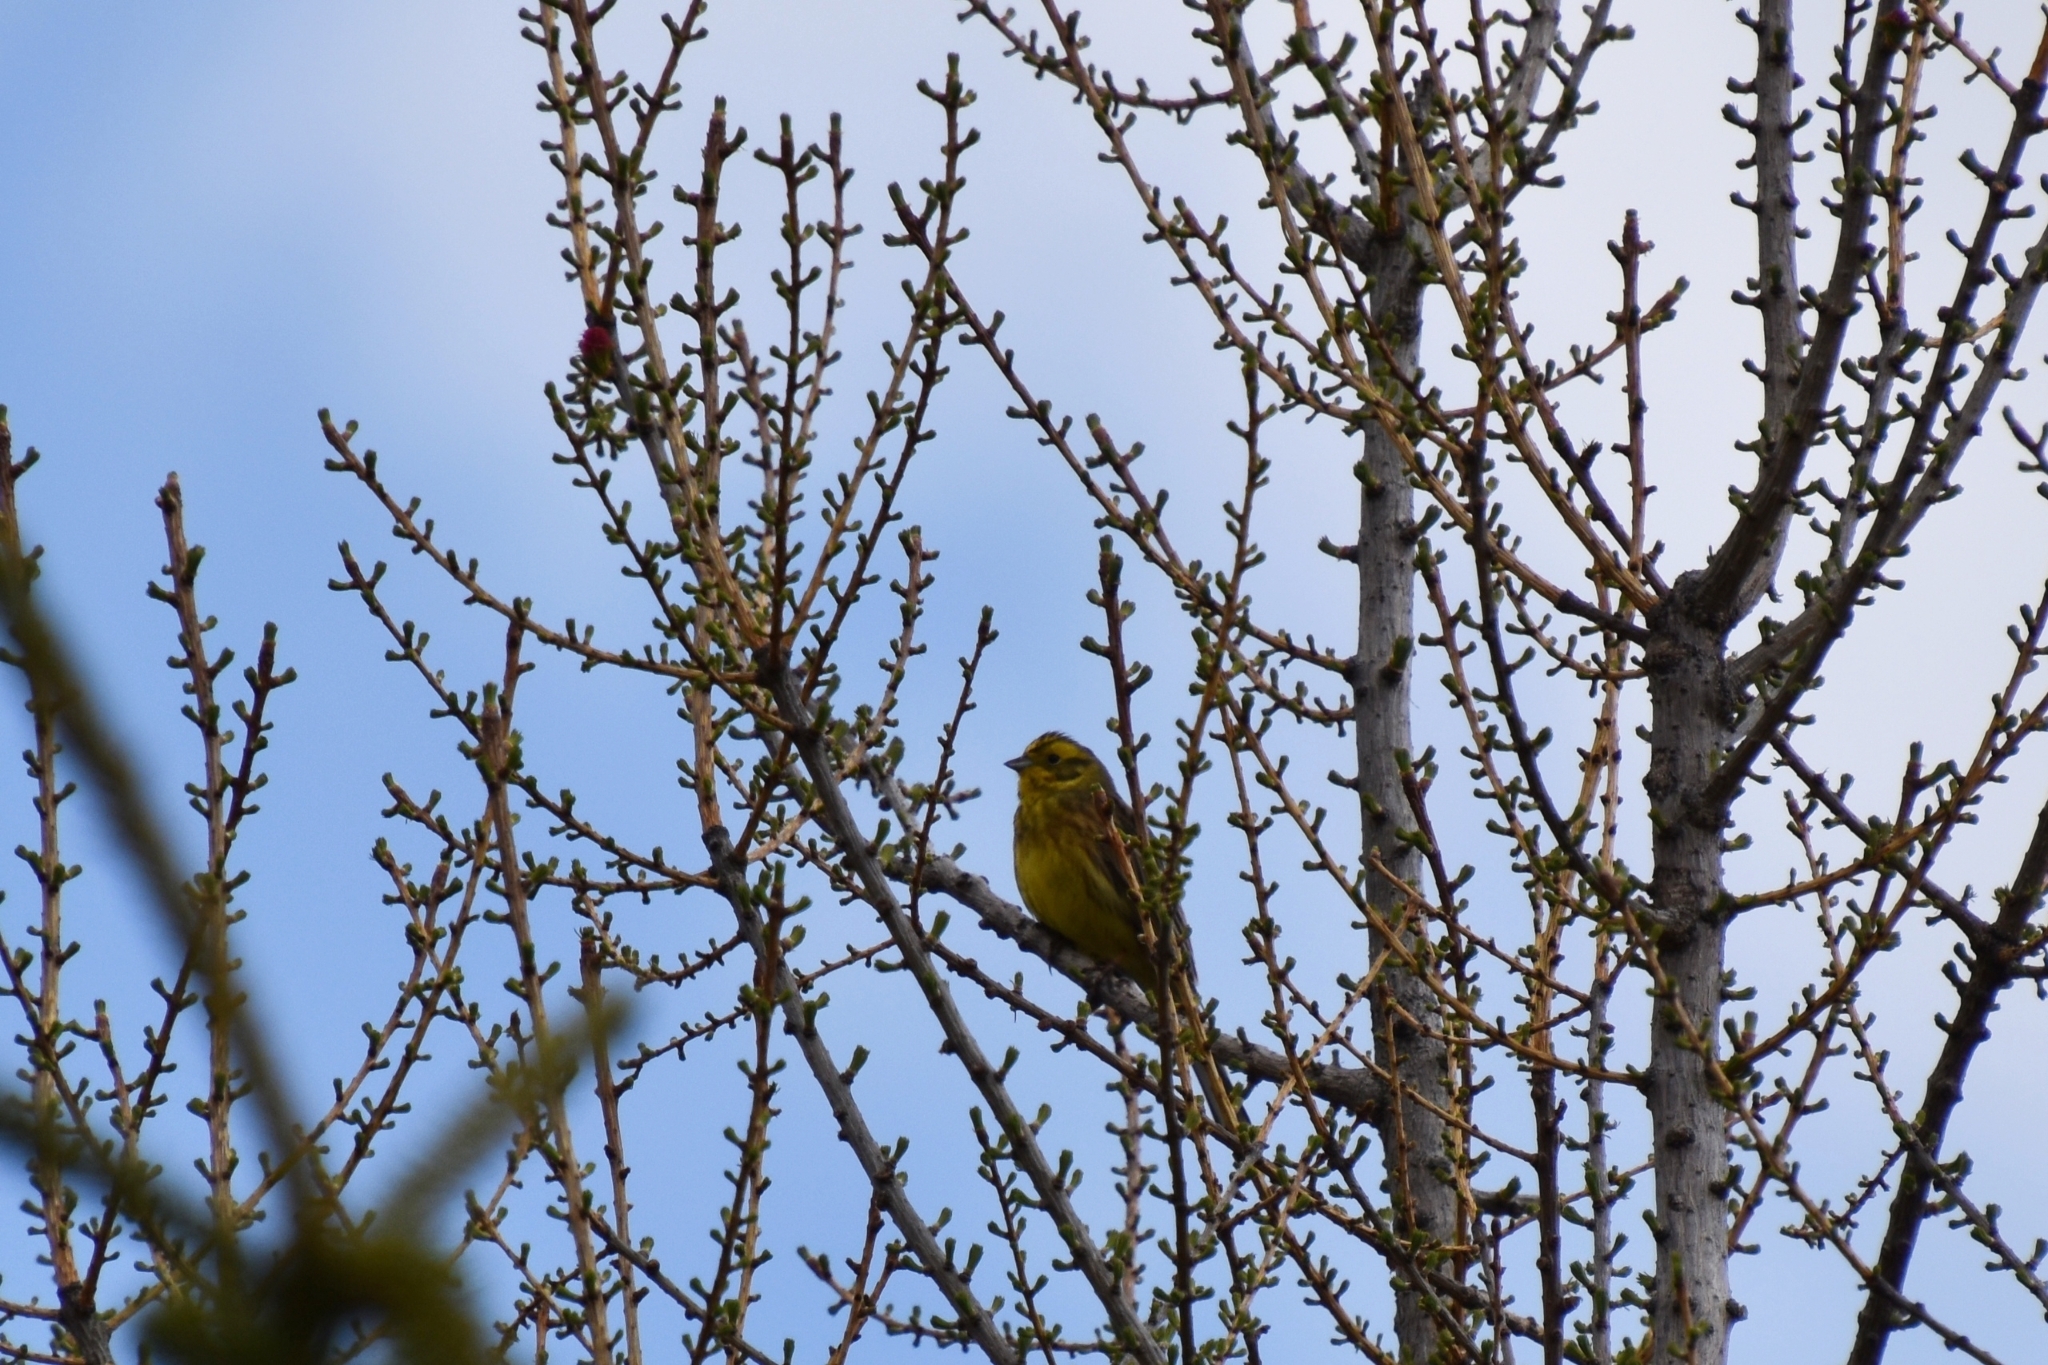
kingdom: Animalia
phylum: Chordata
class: Aves
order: Passeriformes
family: Emberizidae
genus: Emberiza
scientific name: Emberiza citrinella
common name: Yellowhammer
